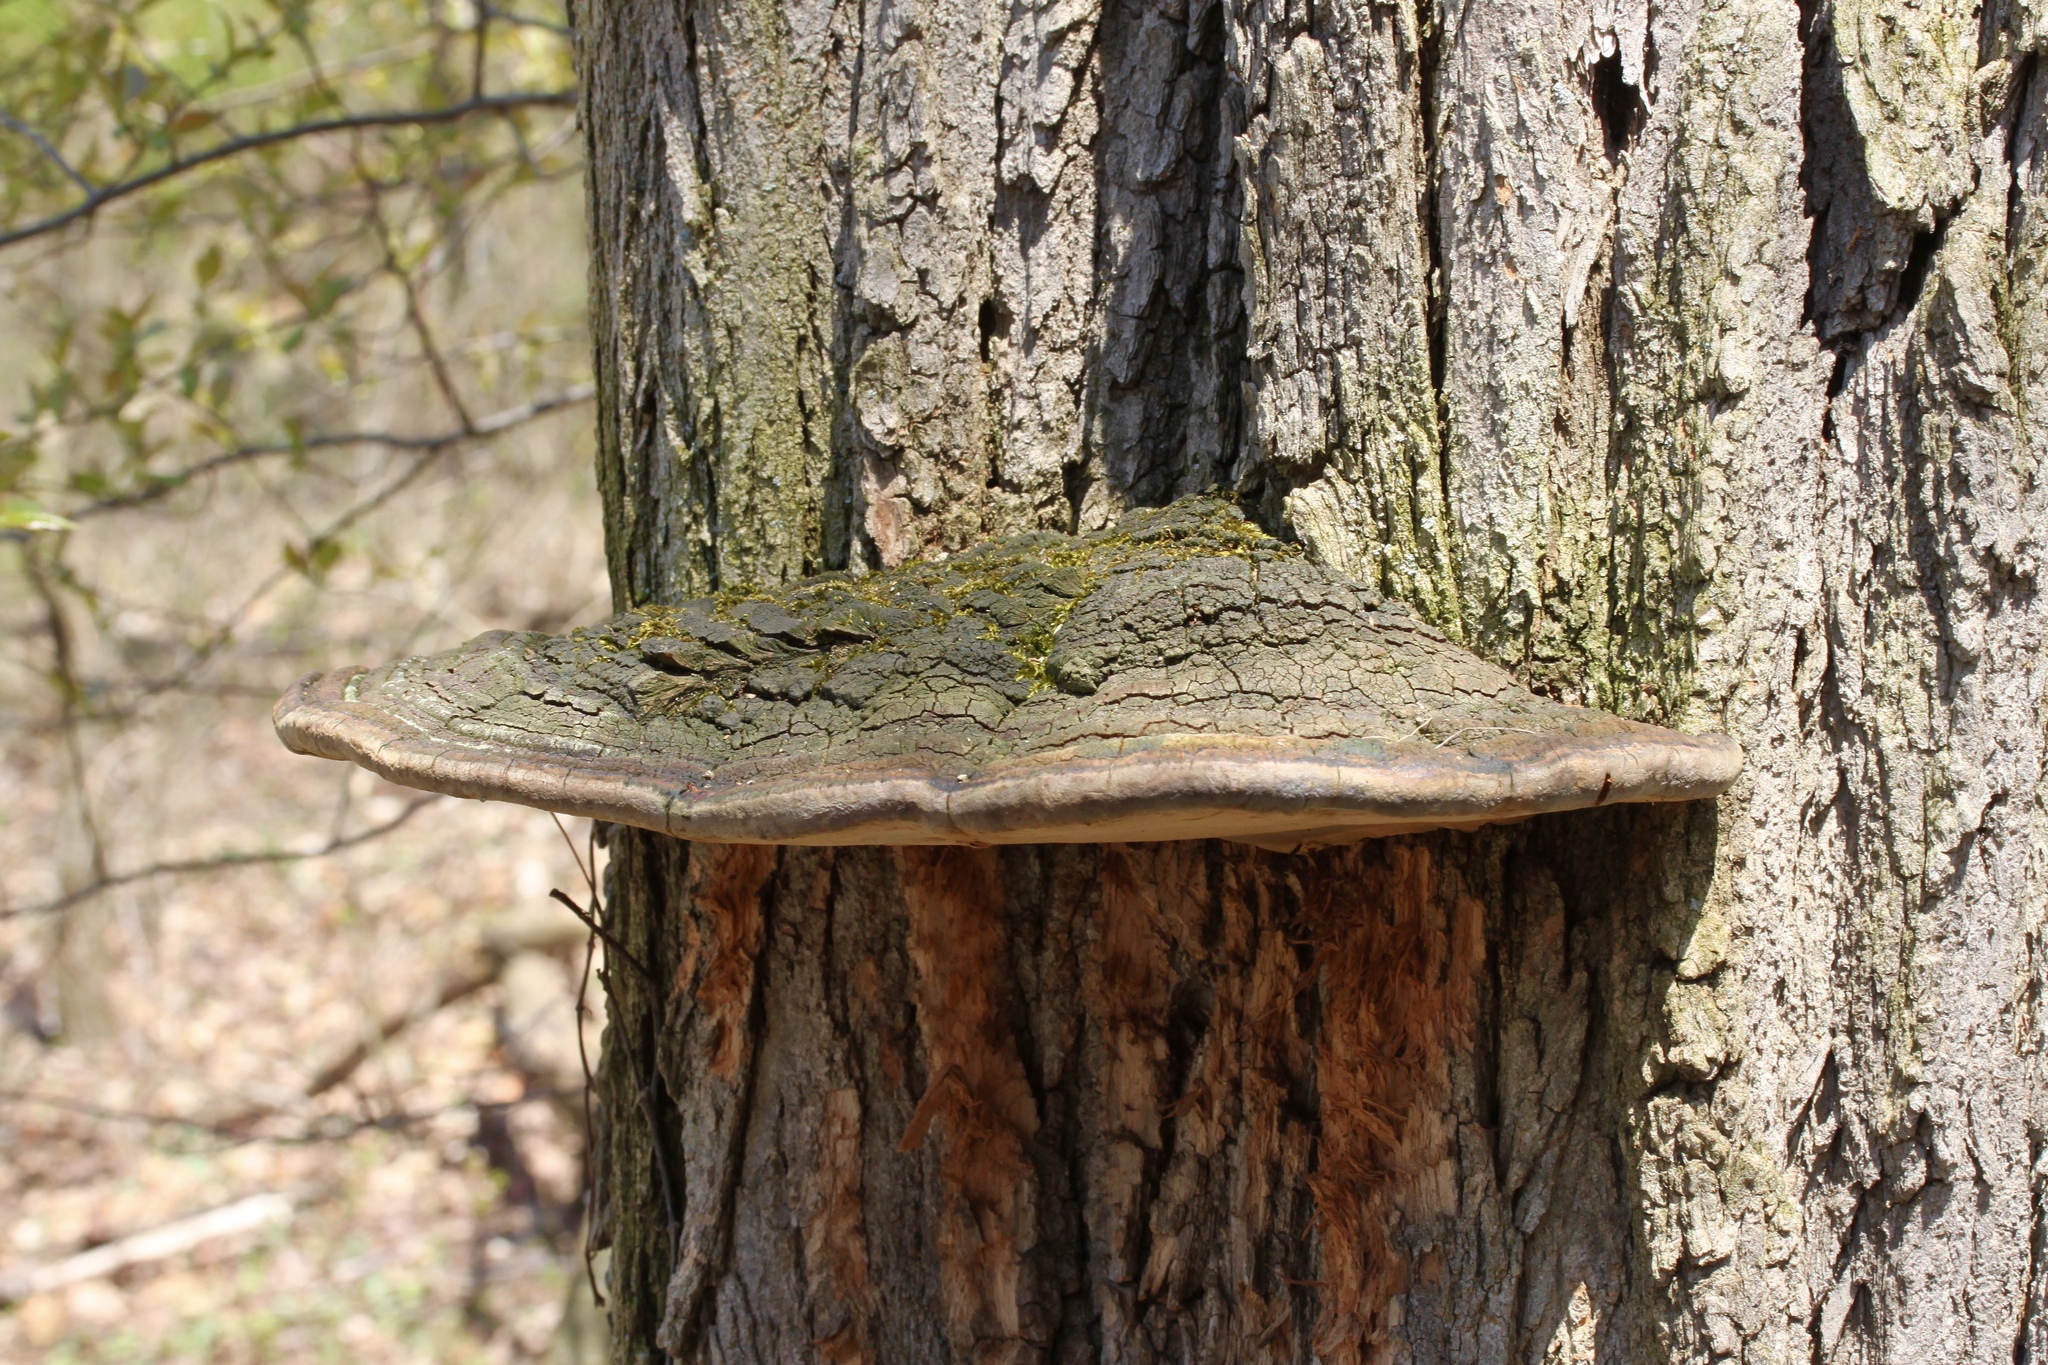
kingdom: Fungi
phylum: Basidiomycota
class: Agaricomycetes
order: Hymenochaetales
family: Hymenochaetaceae
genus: Phellinus
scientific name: Phellinus robiniae
